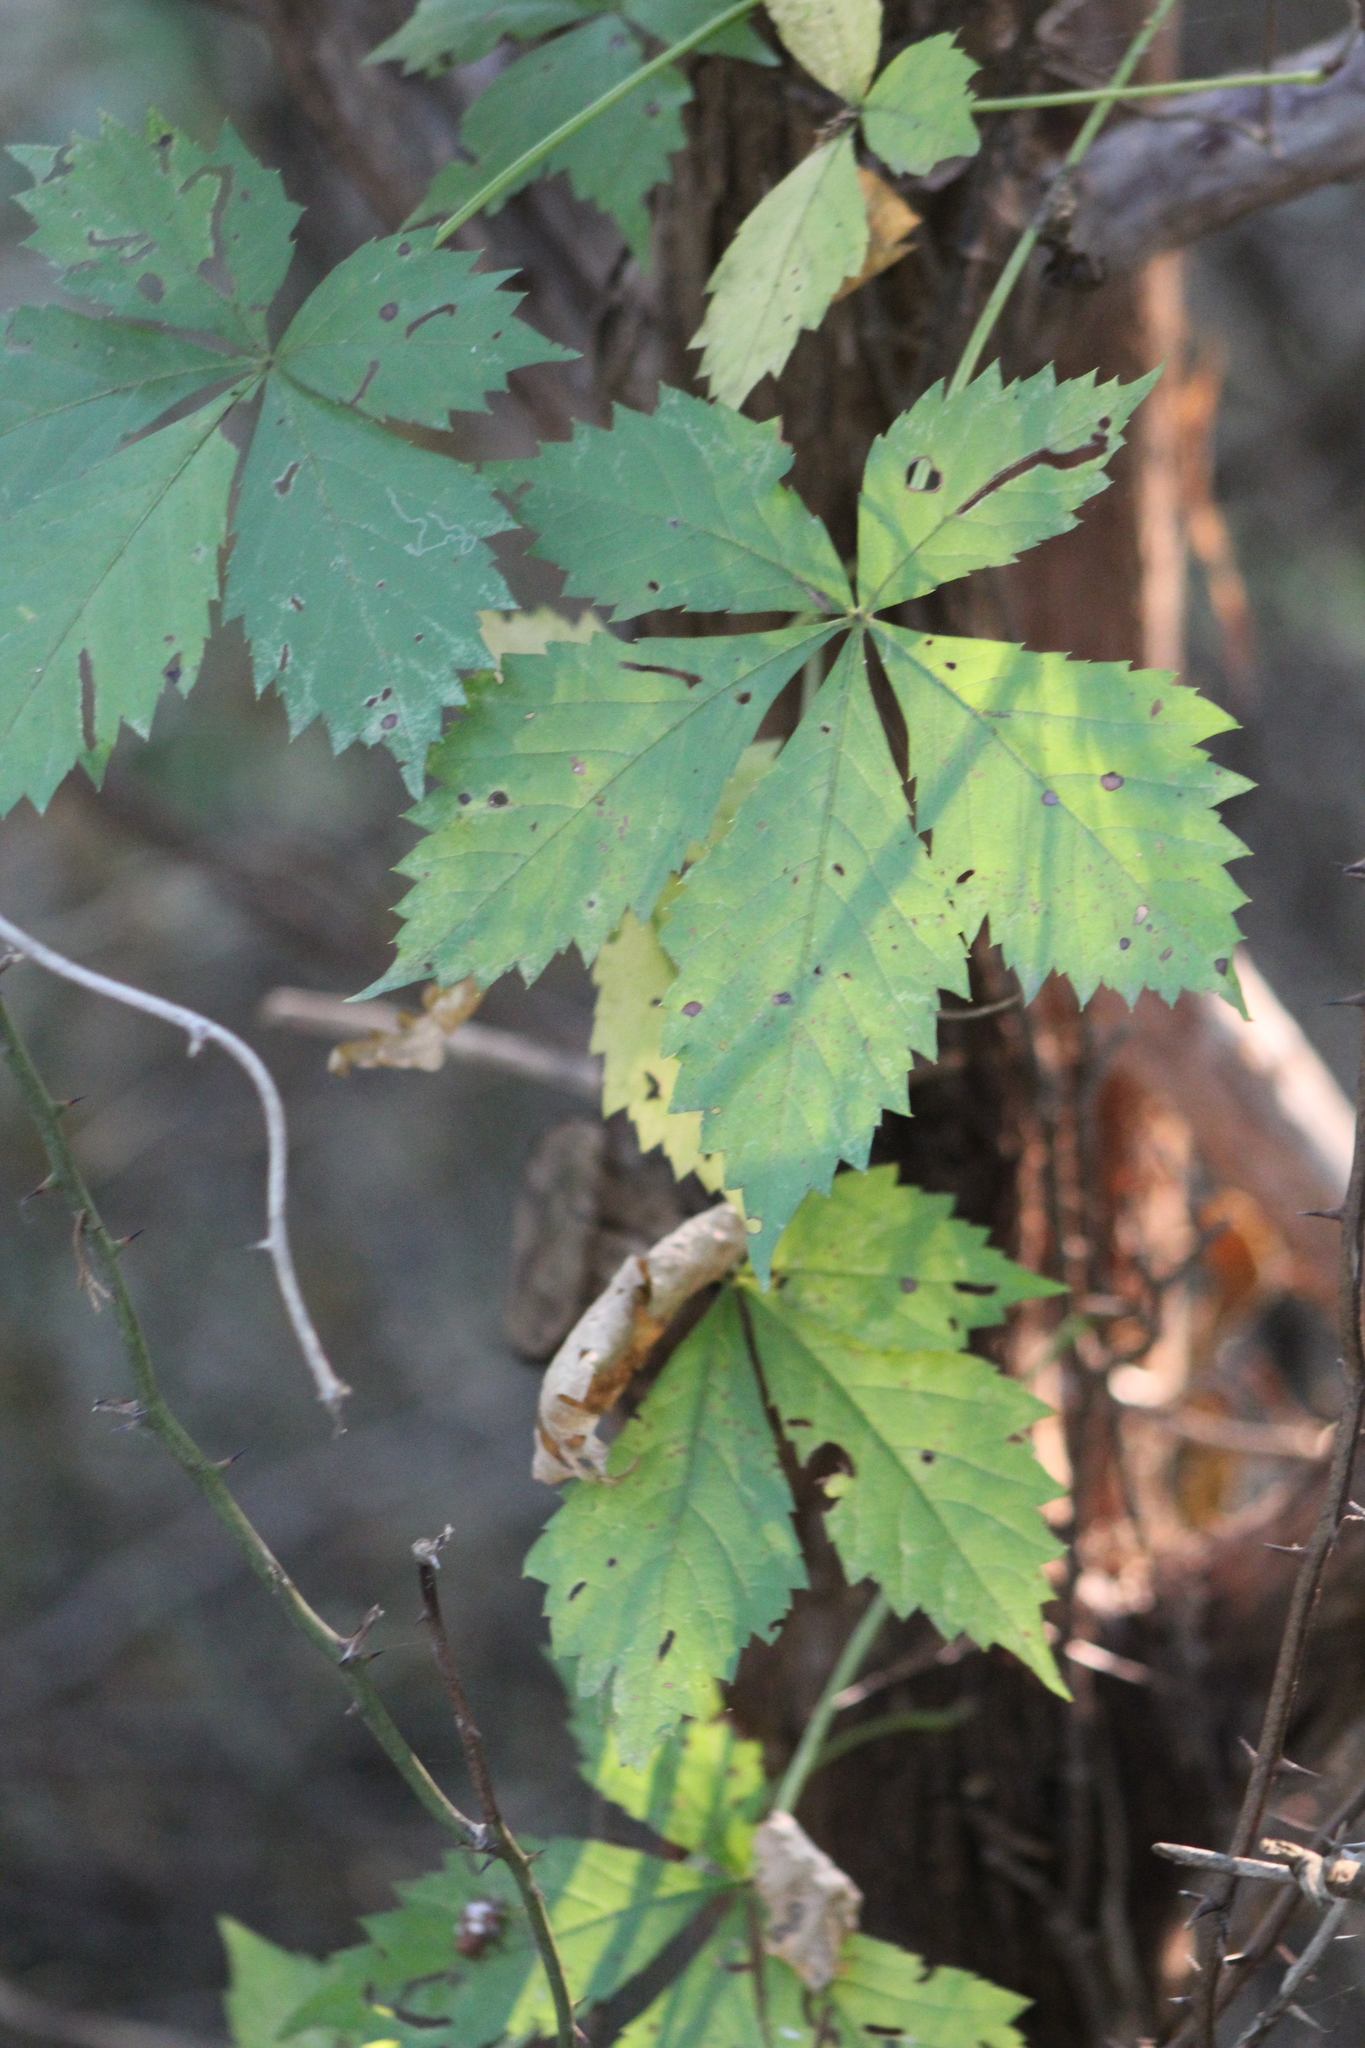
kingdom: Plantae
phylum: Tracheophyta
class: Magnoliopsida
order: Vitales
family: Vitaceae
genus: Parthenocissus
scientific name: Parthenocissus quinquefolia
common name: Virginia-creeper
